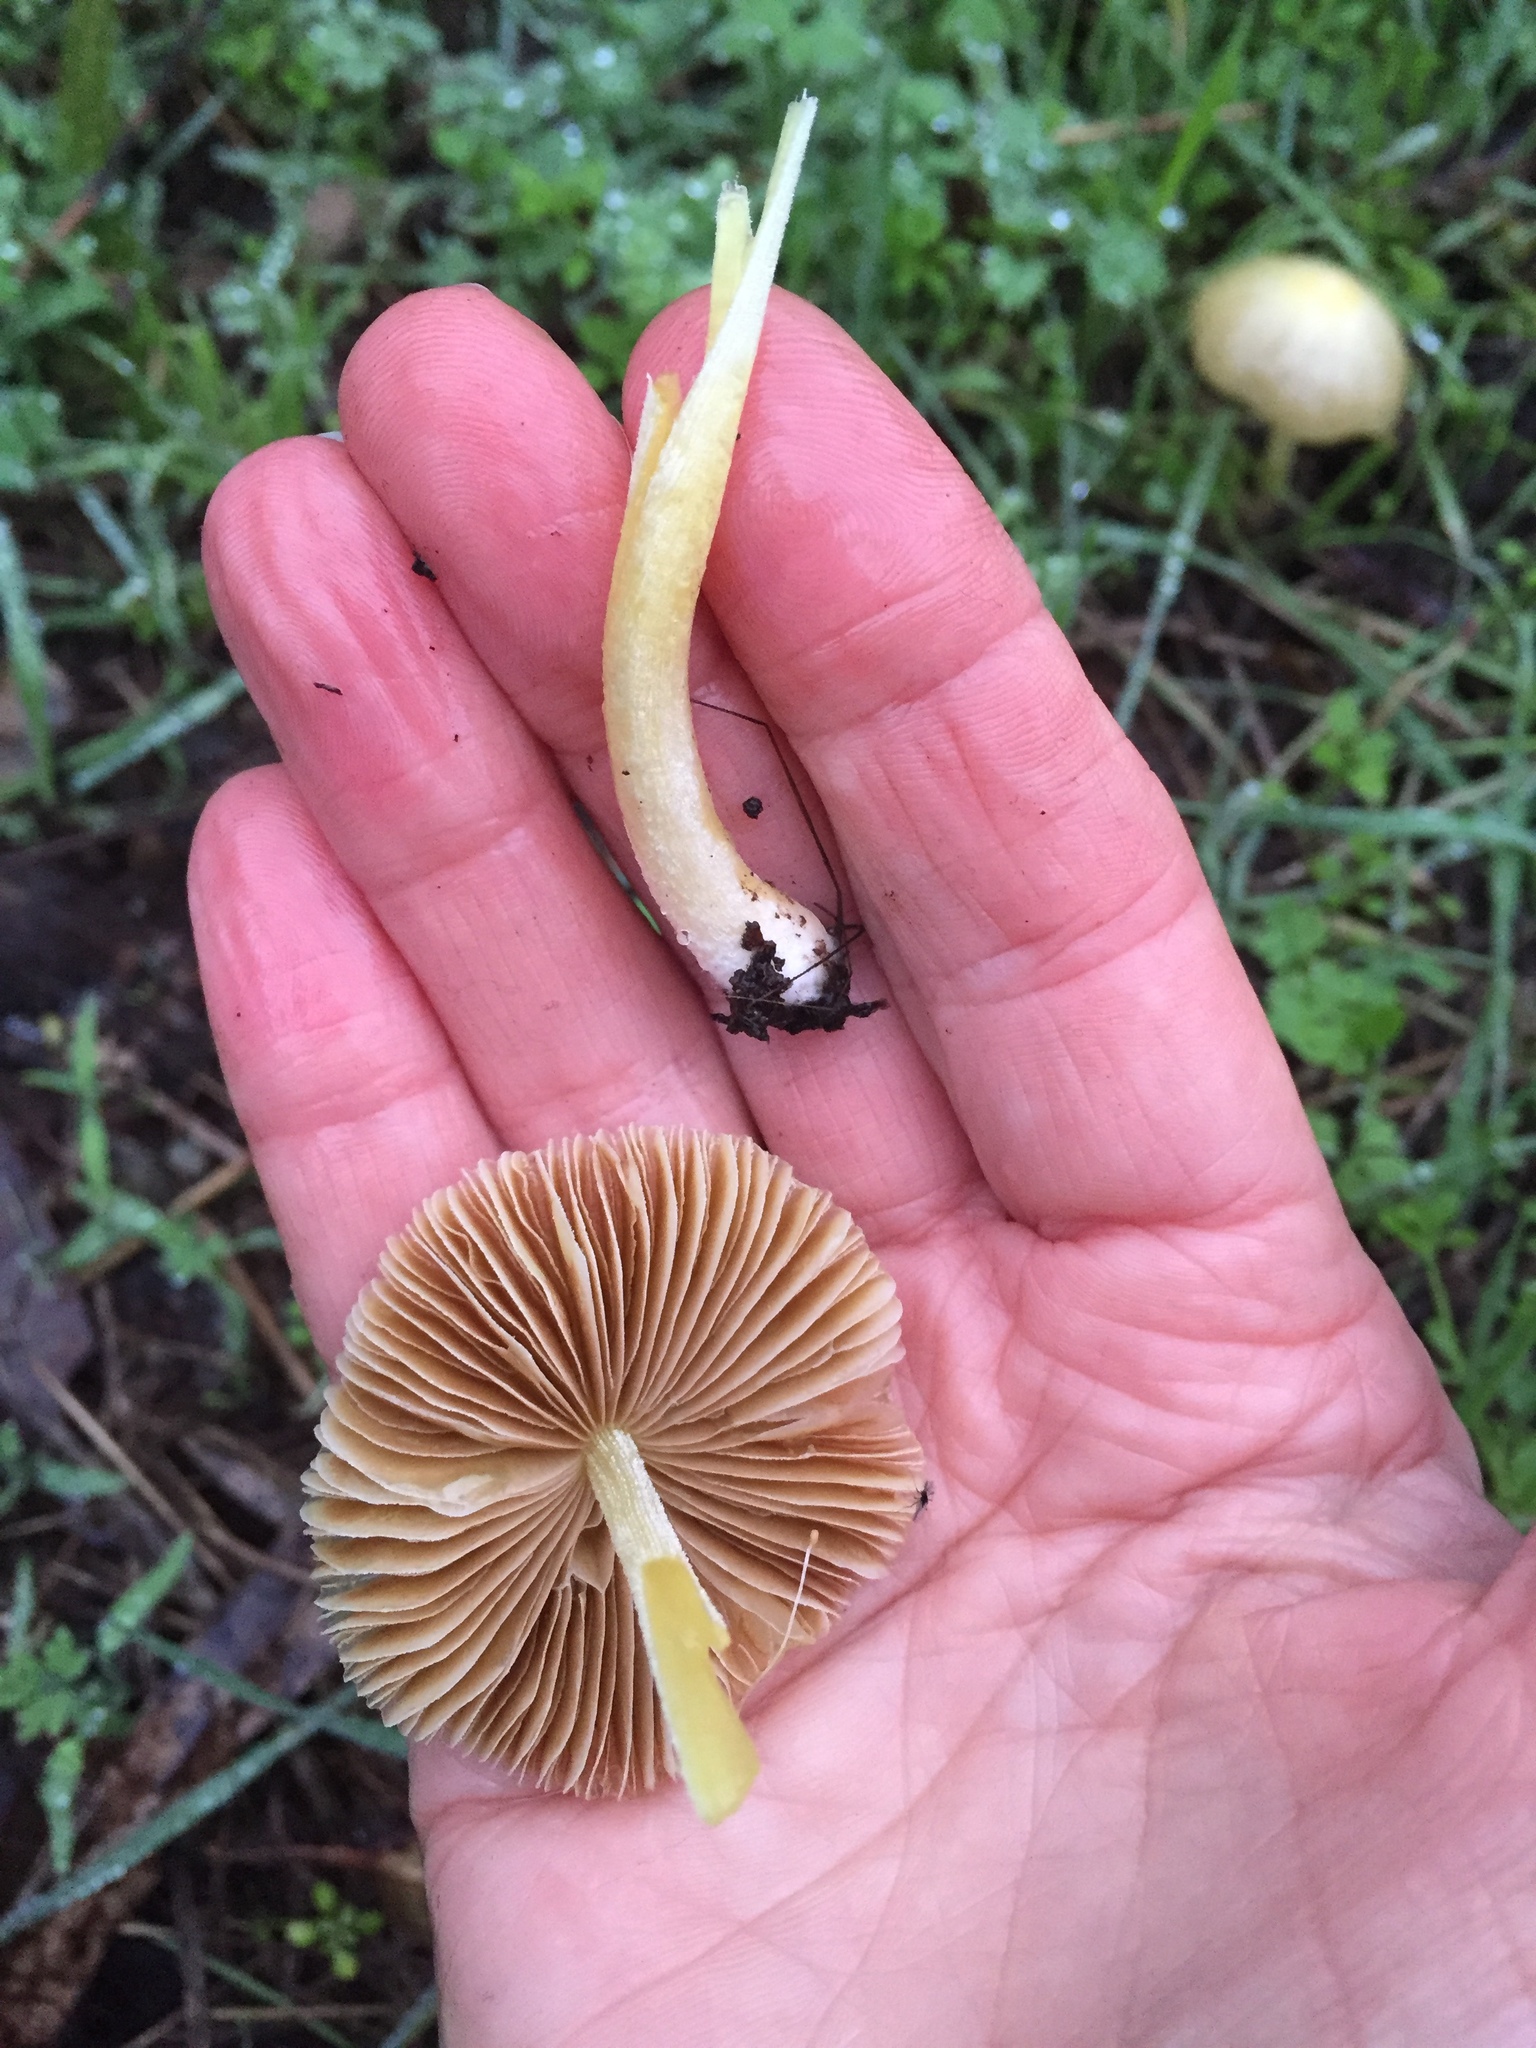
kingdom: Fungi
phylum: Basidiomycota
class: Agaricomycetes
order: Agaricales
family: Bolbitiaceae
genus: Bolbitius
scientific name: Bolbitius titubans
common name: Yellow fieldcap
